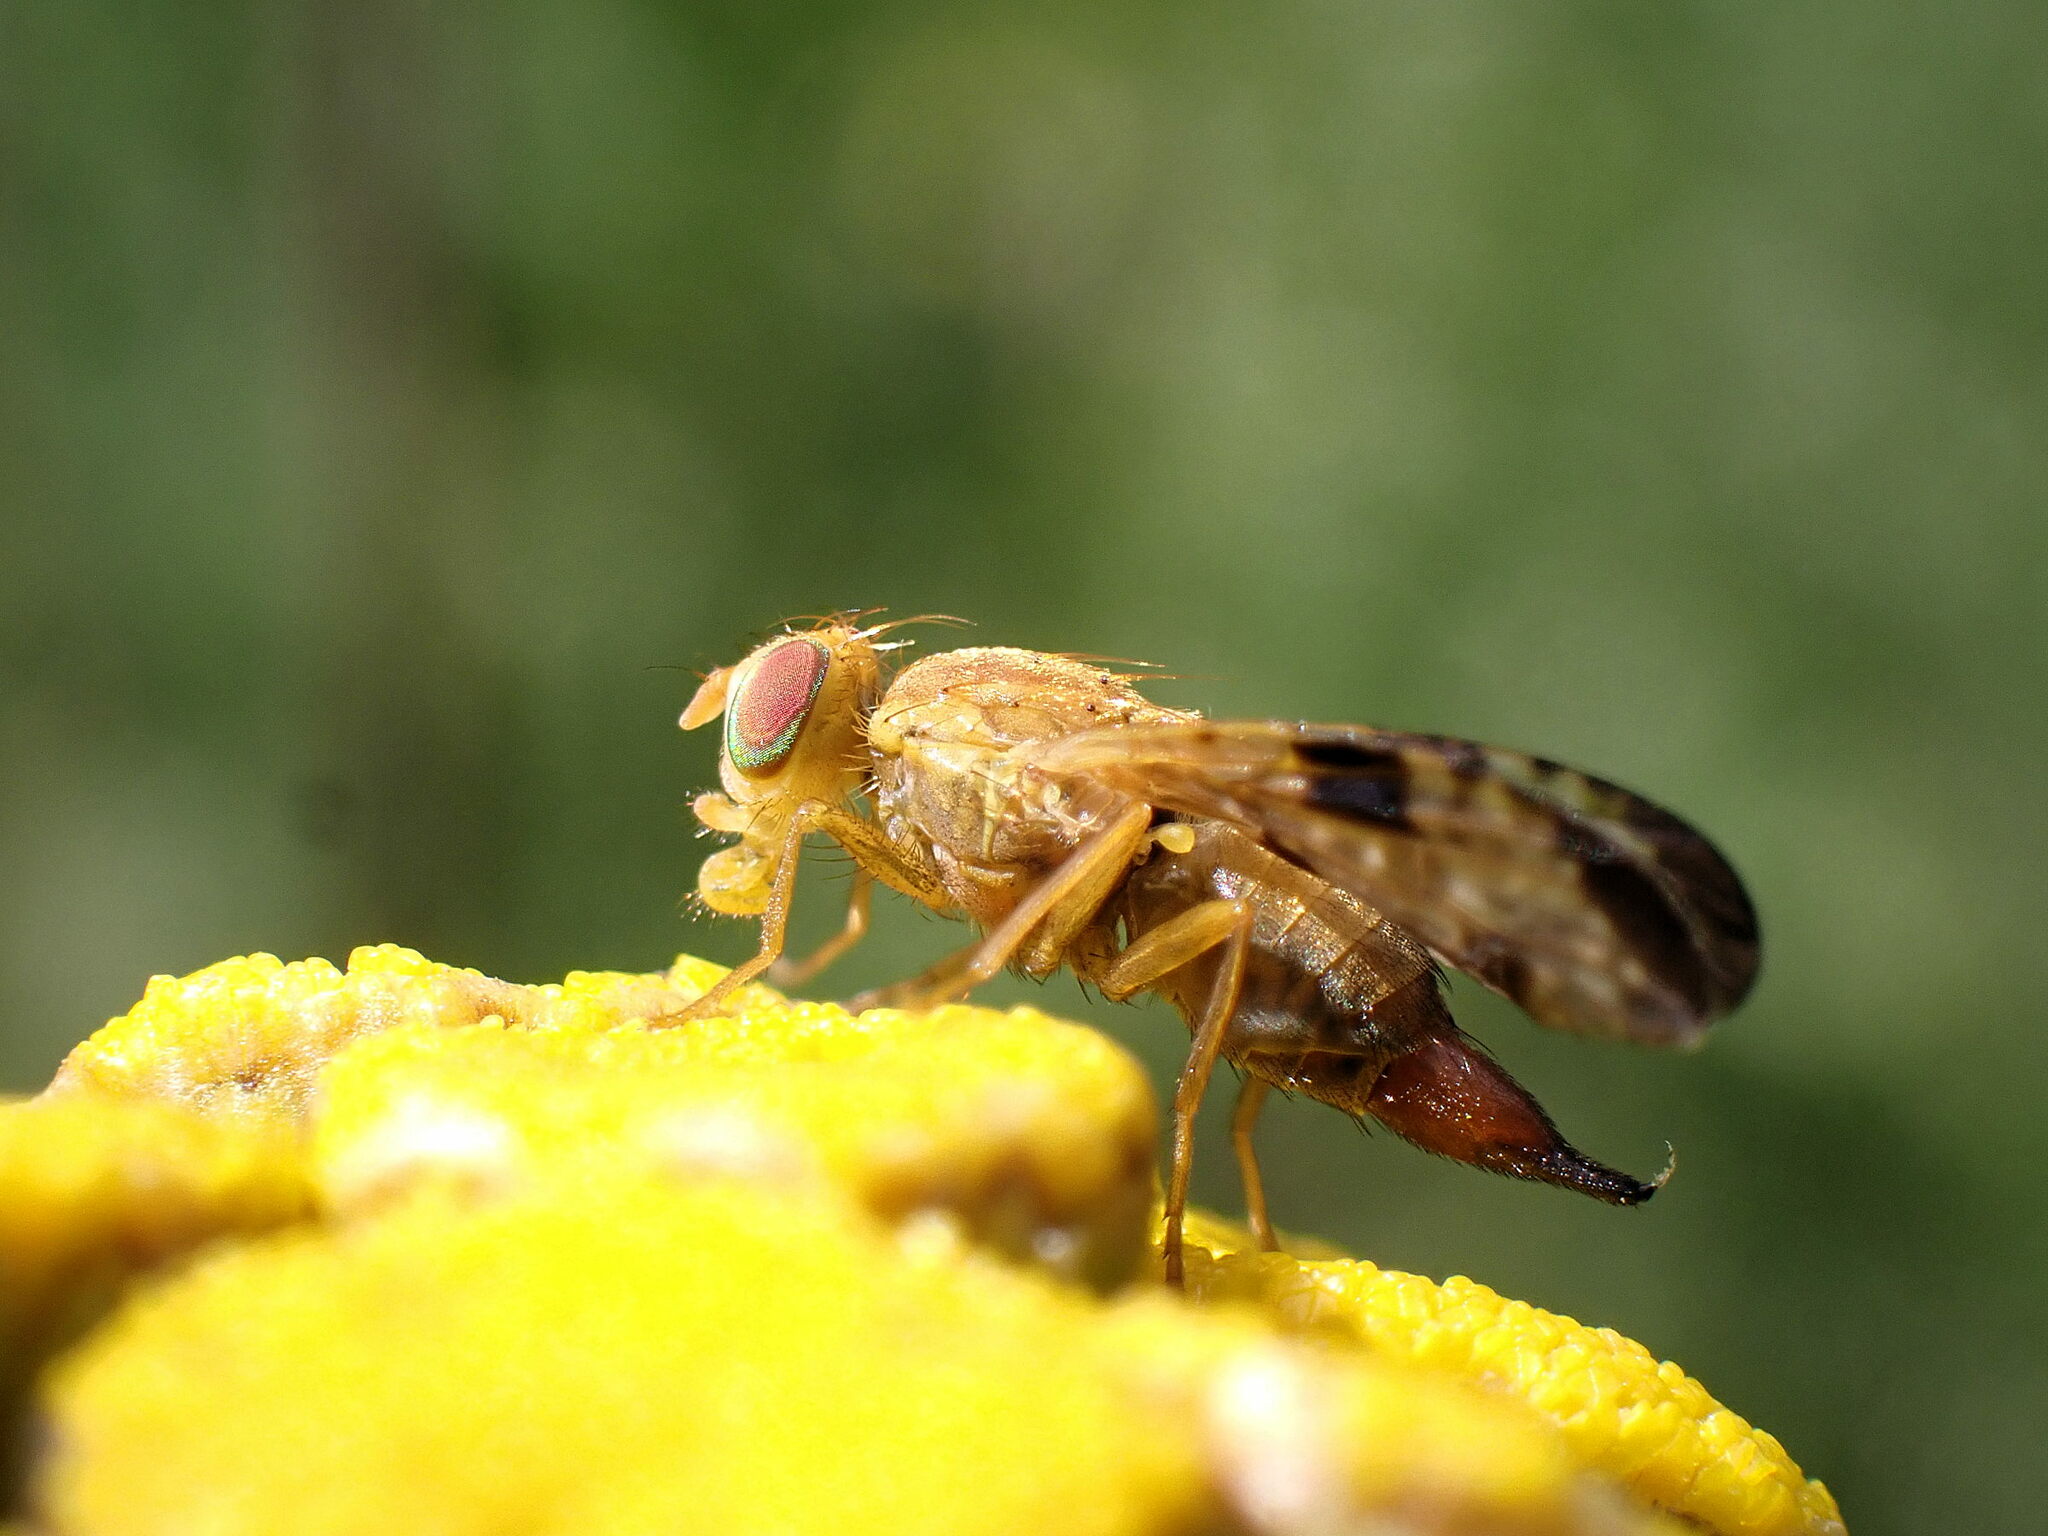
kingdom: Animalia
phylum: Arthropoda
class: Insecta
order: Diptera
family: Tephritidae
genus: Xyphosia
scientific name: Xyphosia miliaria
